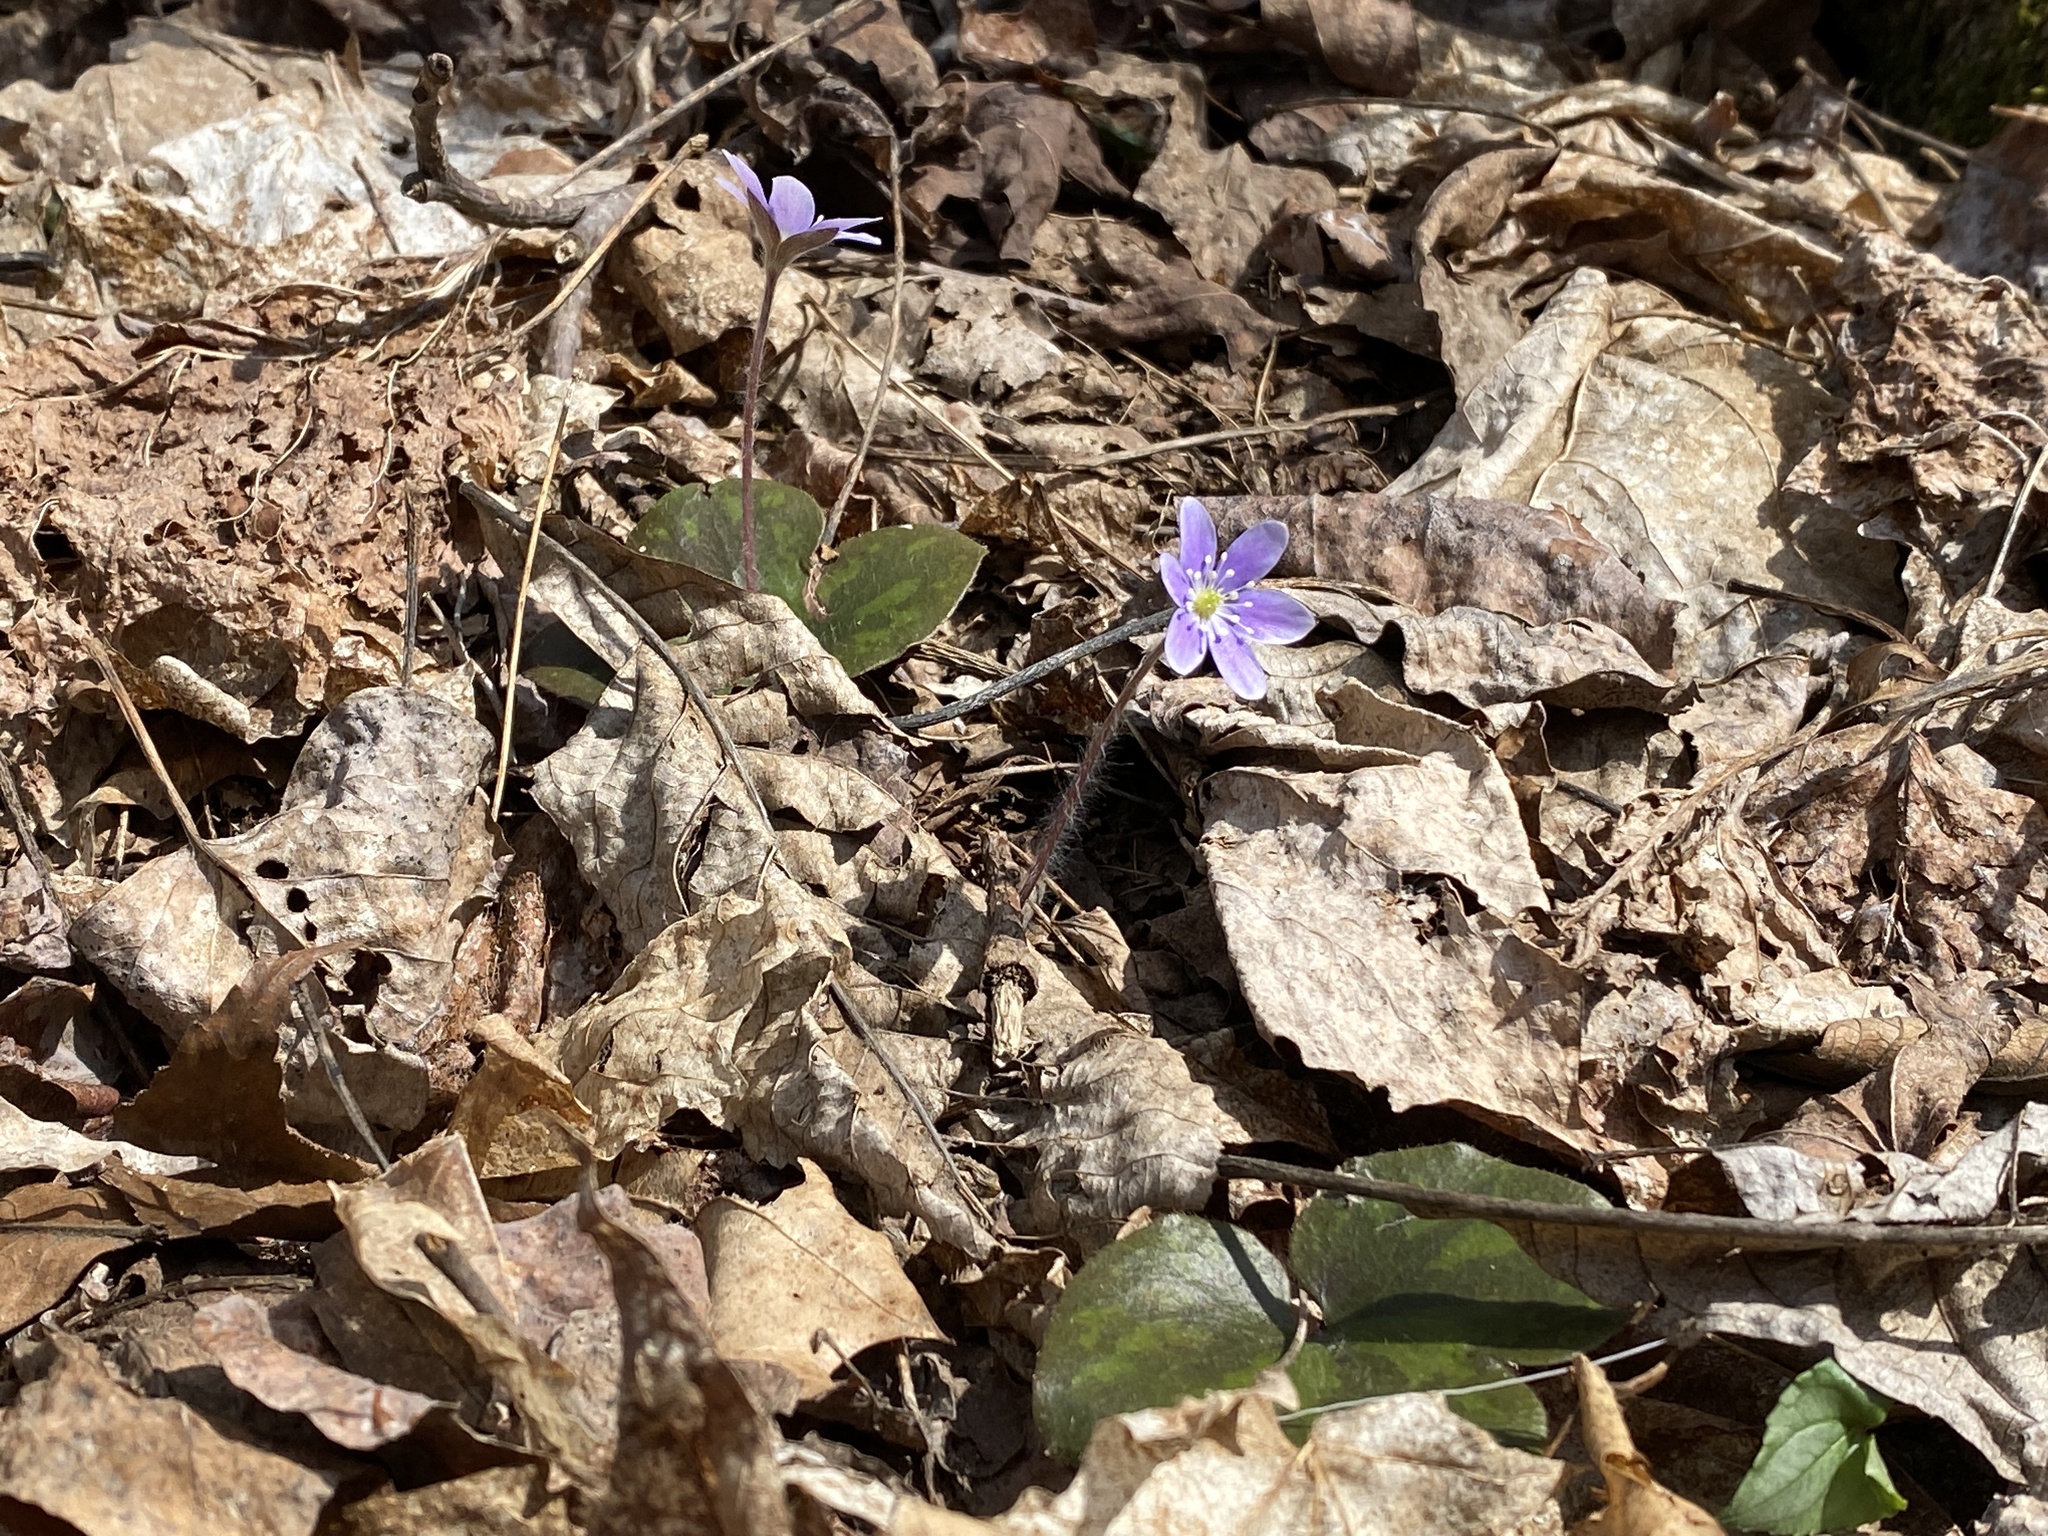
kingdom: Plantae
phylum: Tracheophyta
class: Magnoliopsida
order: Ranunculales
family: Ranunculaceae
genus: Hepatica
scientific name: Hepatica americana
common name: American hepatica
